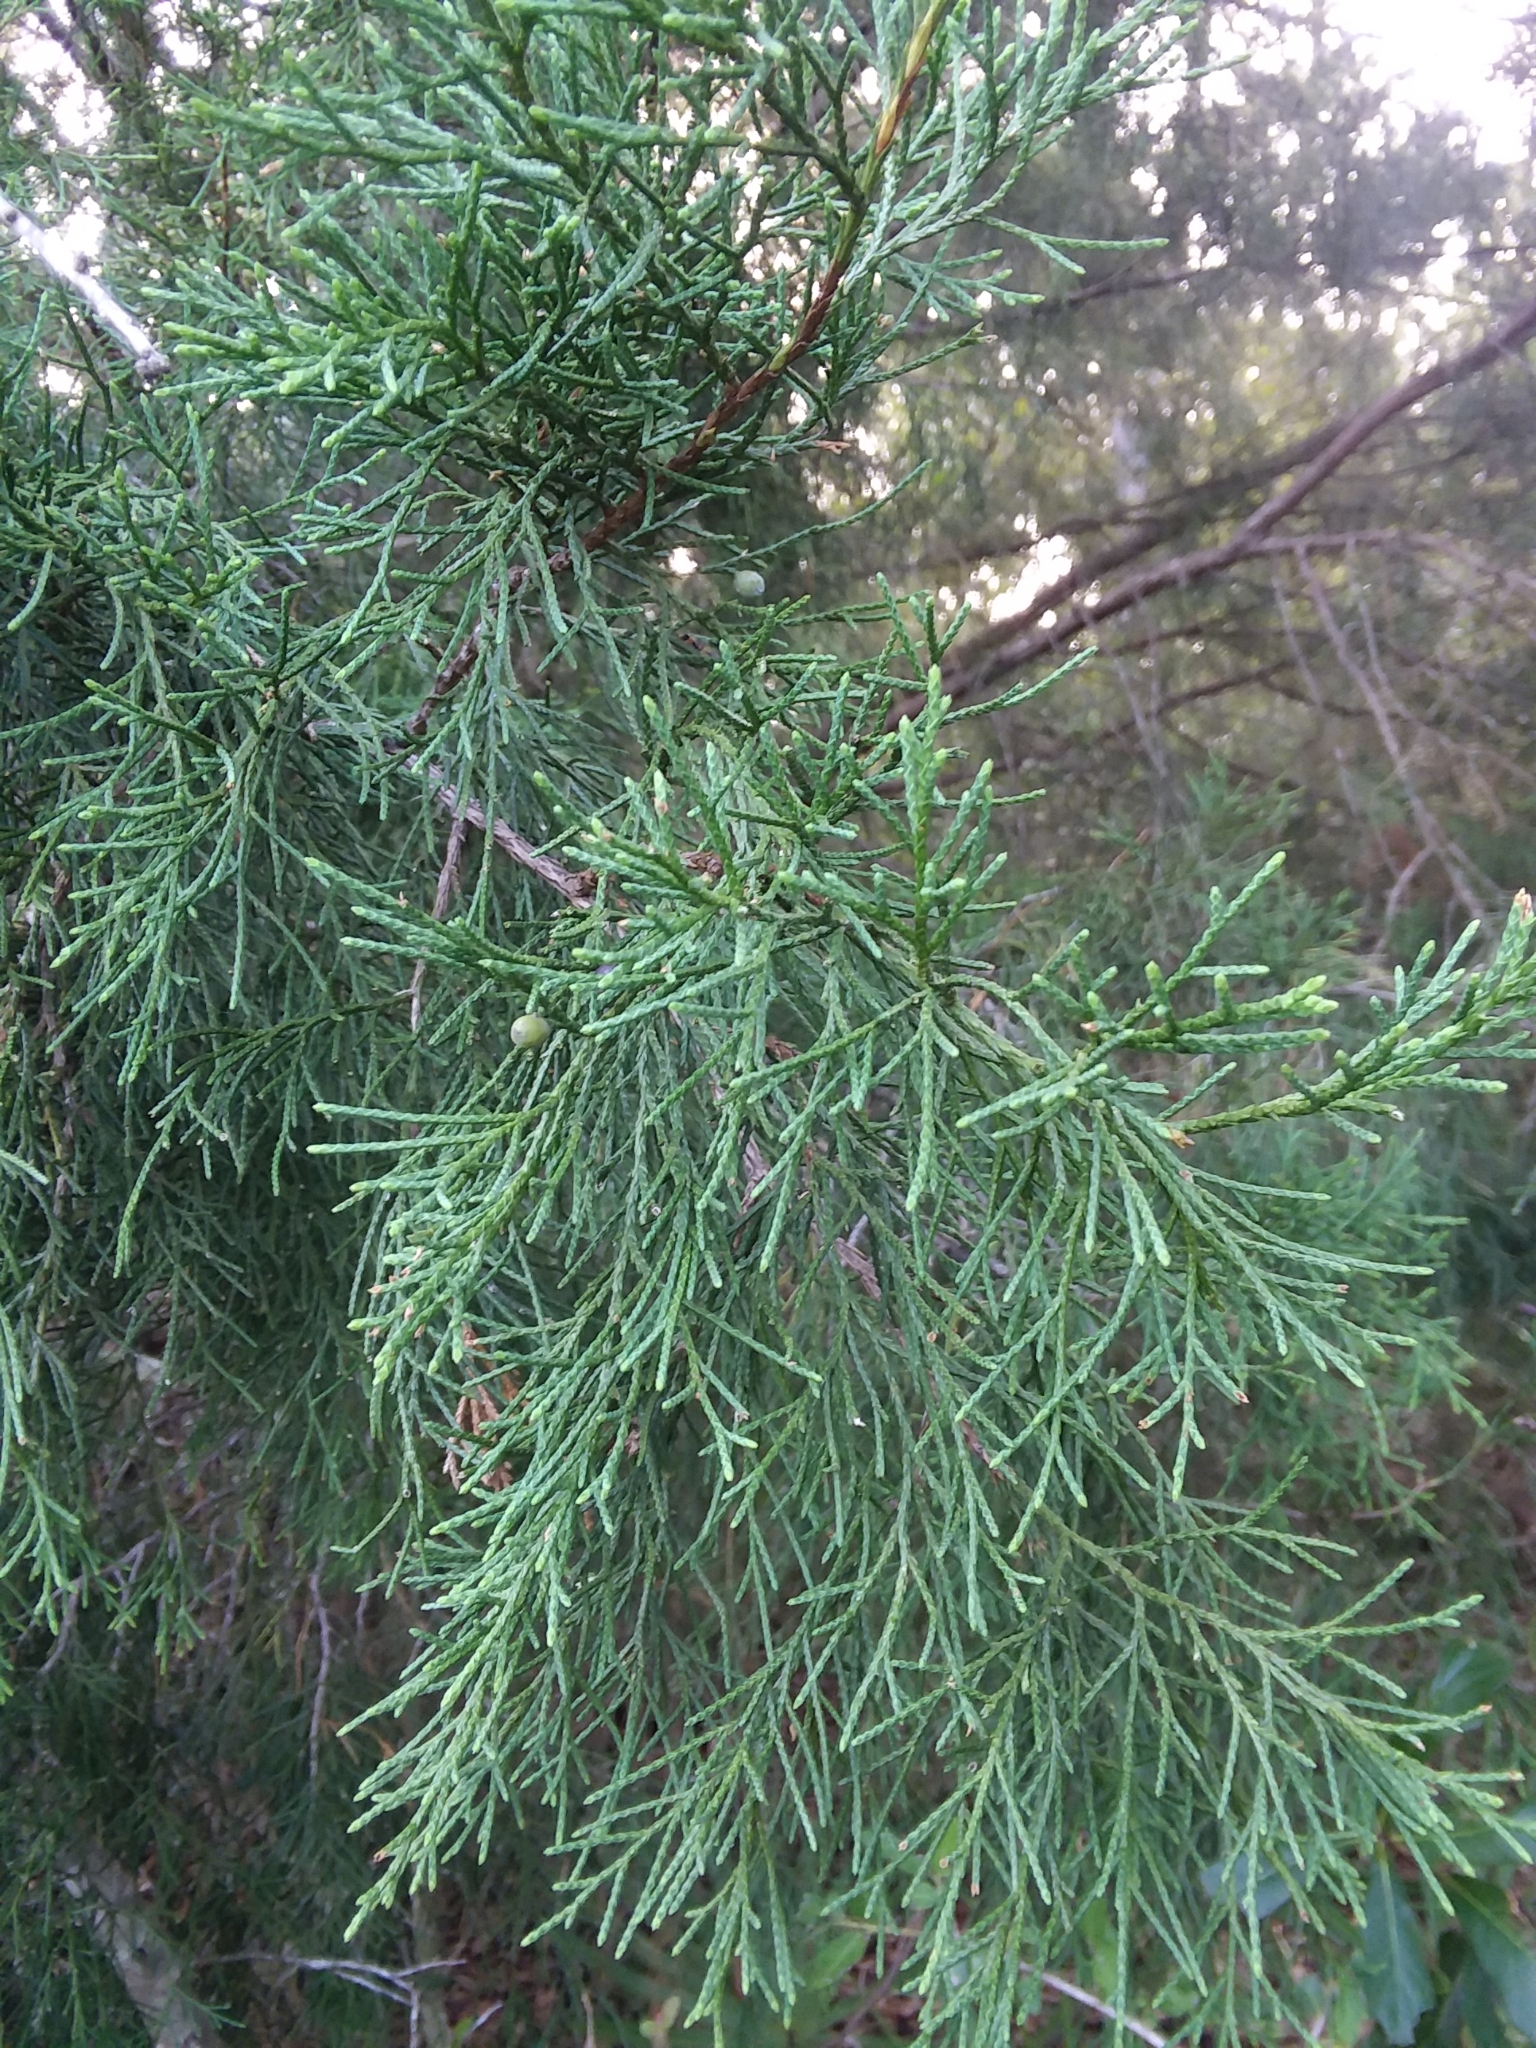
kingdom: Plantae
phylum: Tracheophyta
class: Pinopsida
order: Pinales
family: Cupressaceae
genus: Juniperus
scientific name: Juniperus virginiana
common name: Red juniper
